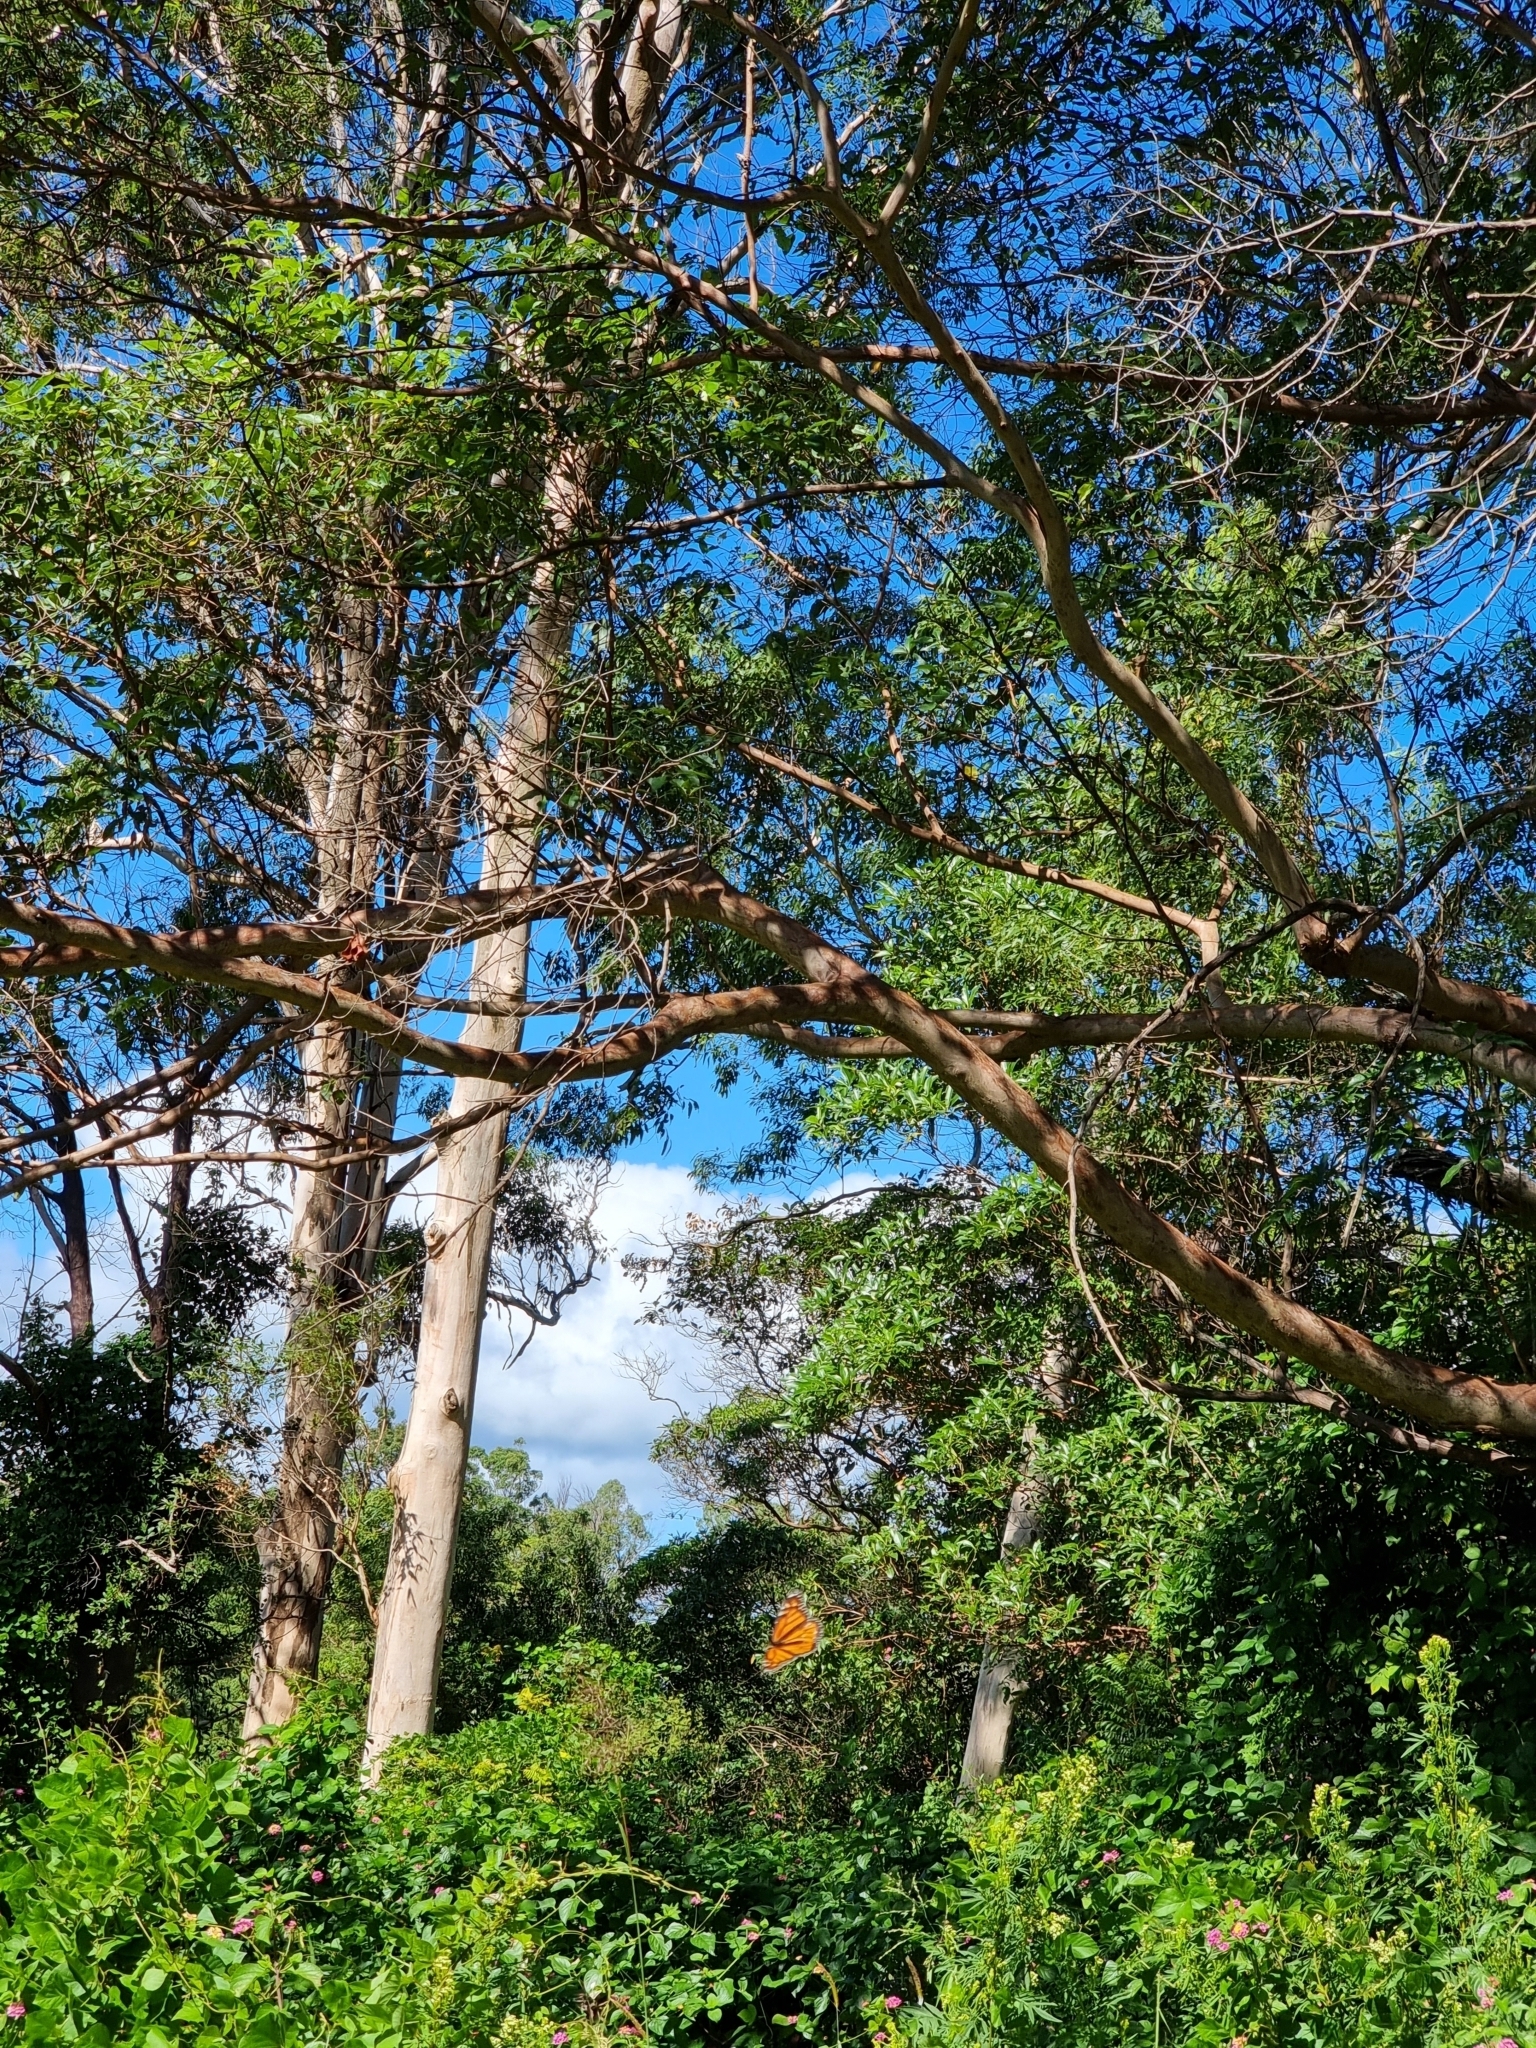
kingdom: Animalia
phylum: Arthropoda
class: Insecta
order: Lepidoptera
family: Nymphalidae
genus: Danaus
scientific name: Danaus plexippus
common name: Monarch
